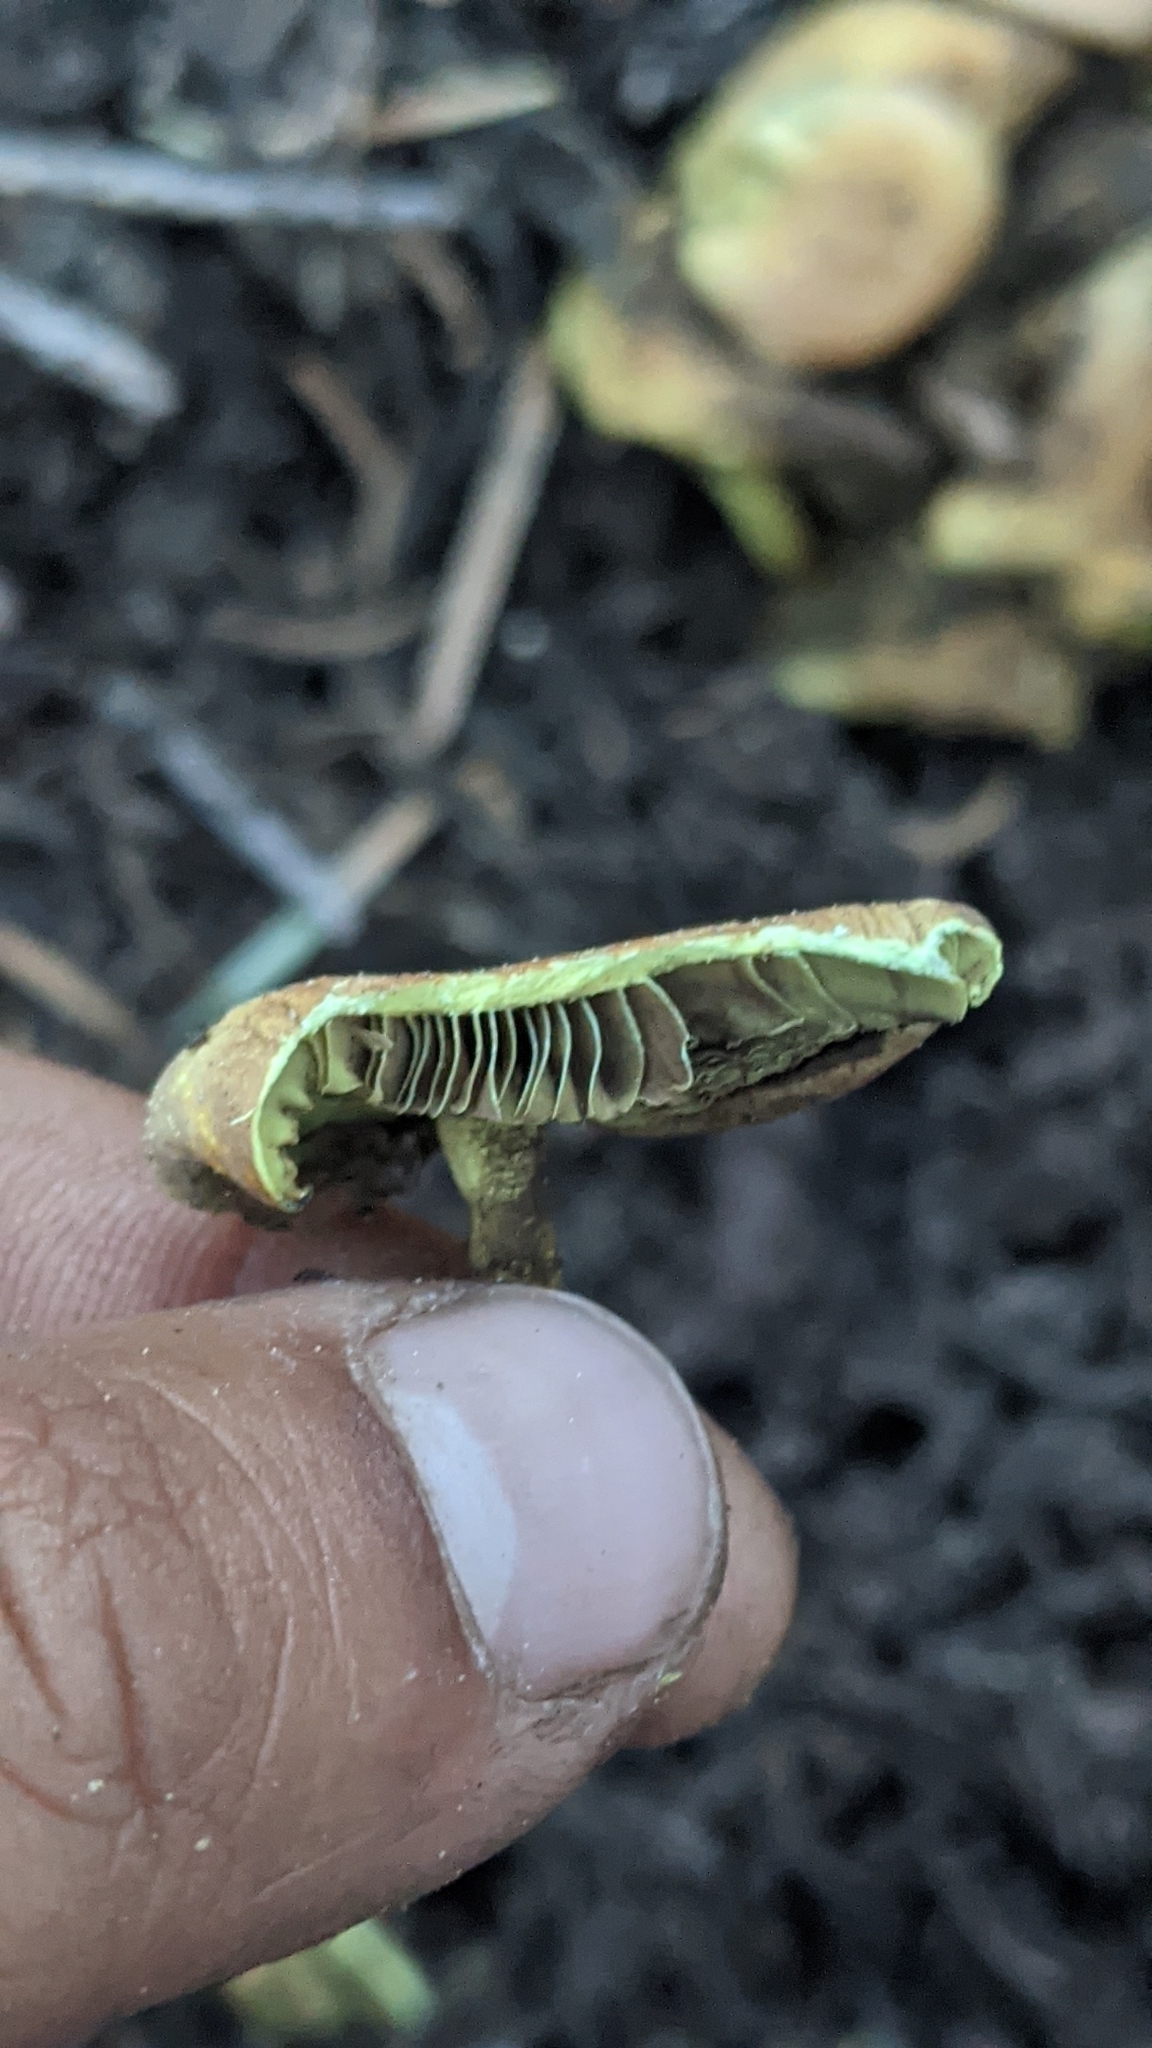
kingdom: Fungi
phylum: Basidiomycota
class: Agaricomycetes
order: Agaricales
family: Strophariaceae
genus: Hypholoma
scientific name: Hypholoma fasciculare
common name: Sulphur tuft
